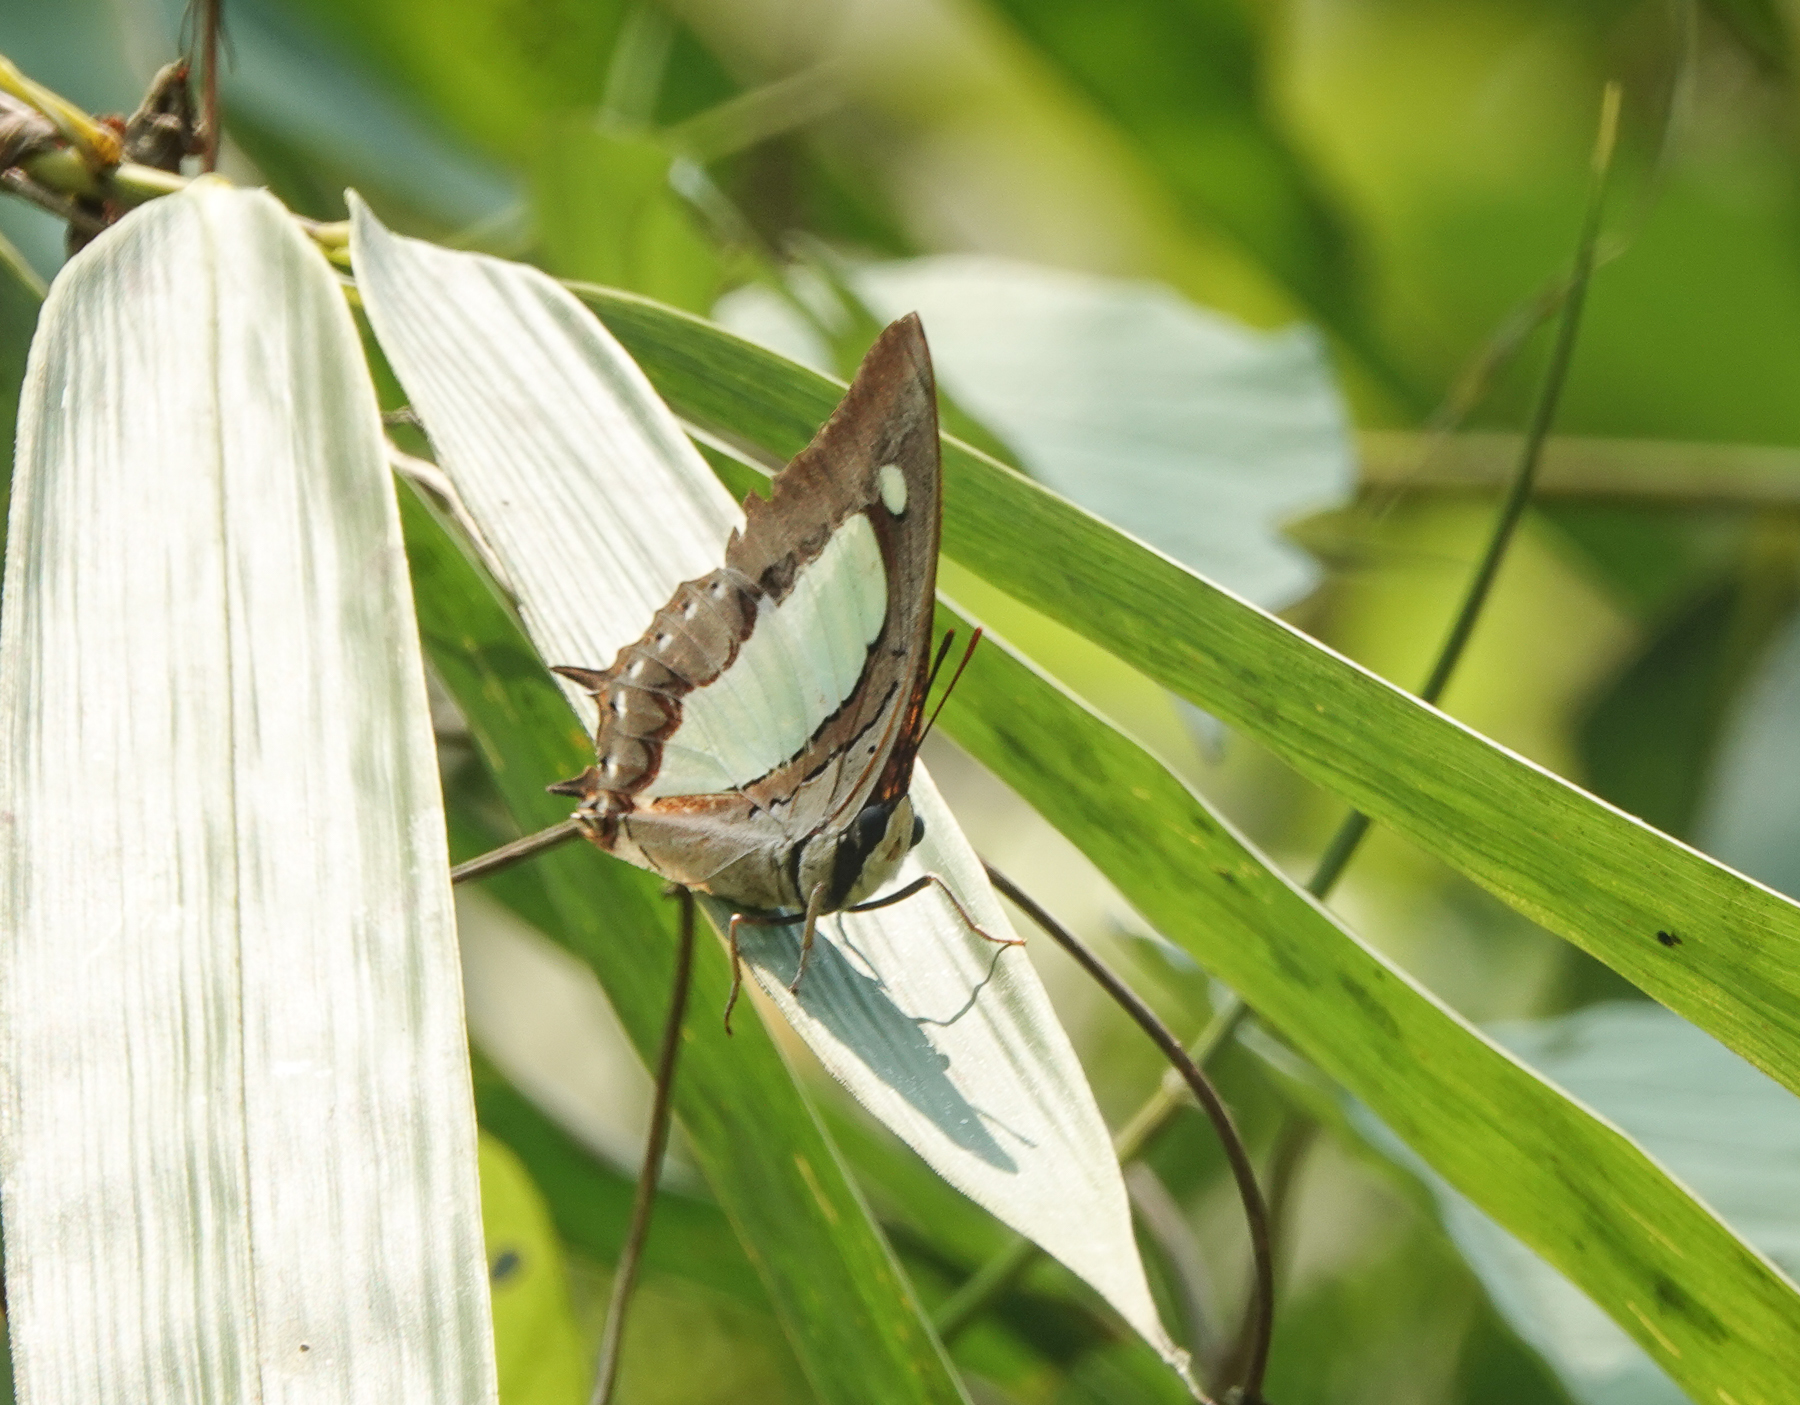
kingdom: Animalia
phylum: Arthropoda
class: Insecta
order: Lepidoptera
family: Nymphalidae
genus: Polyura
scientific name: Polyura athamas
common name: Common nawab
